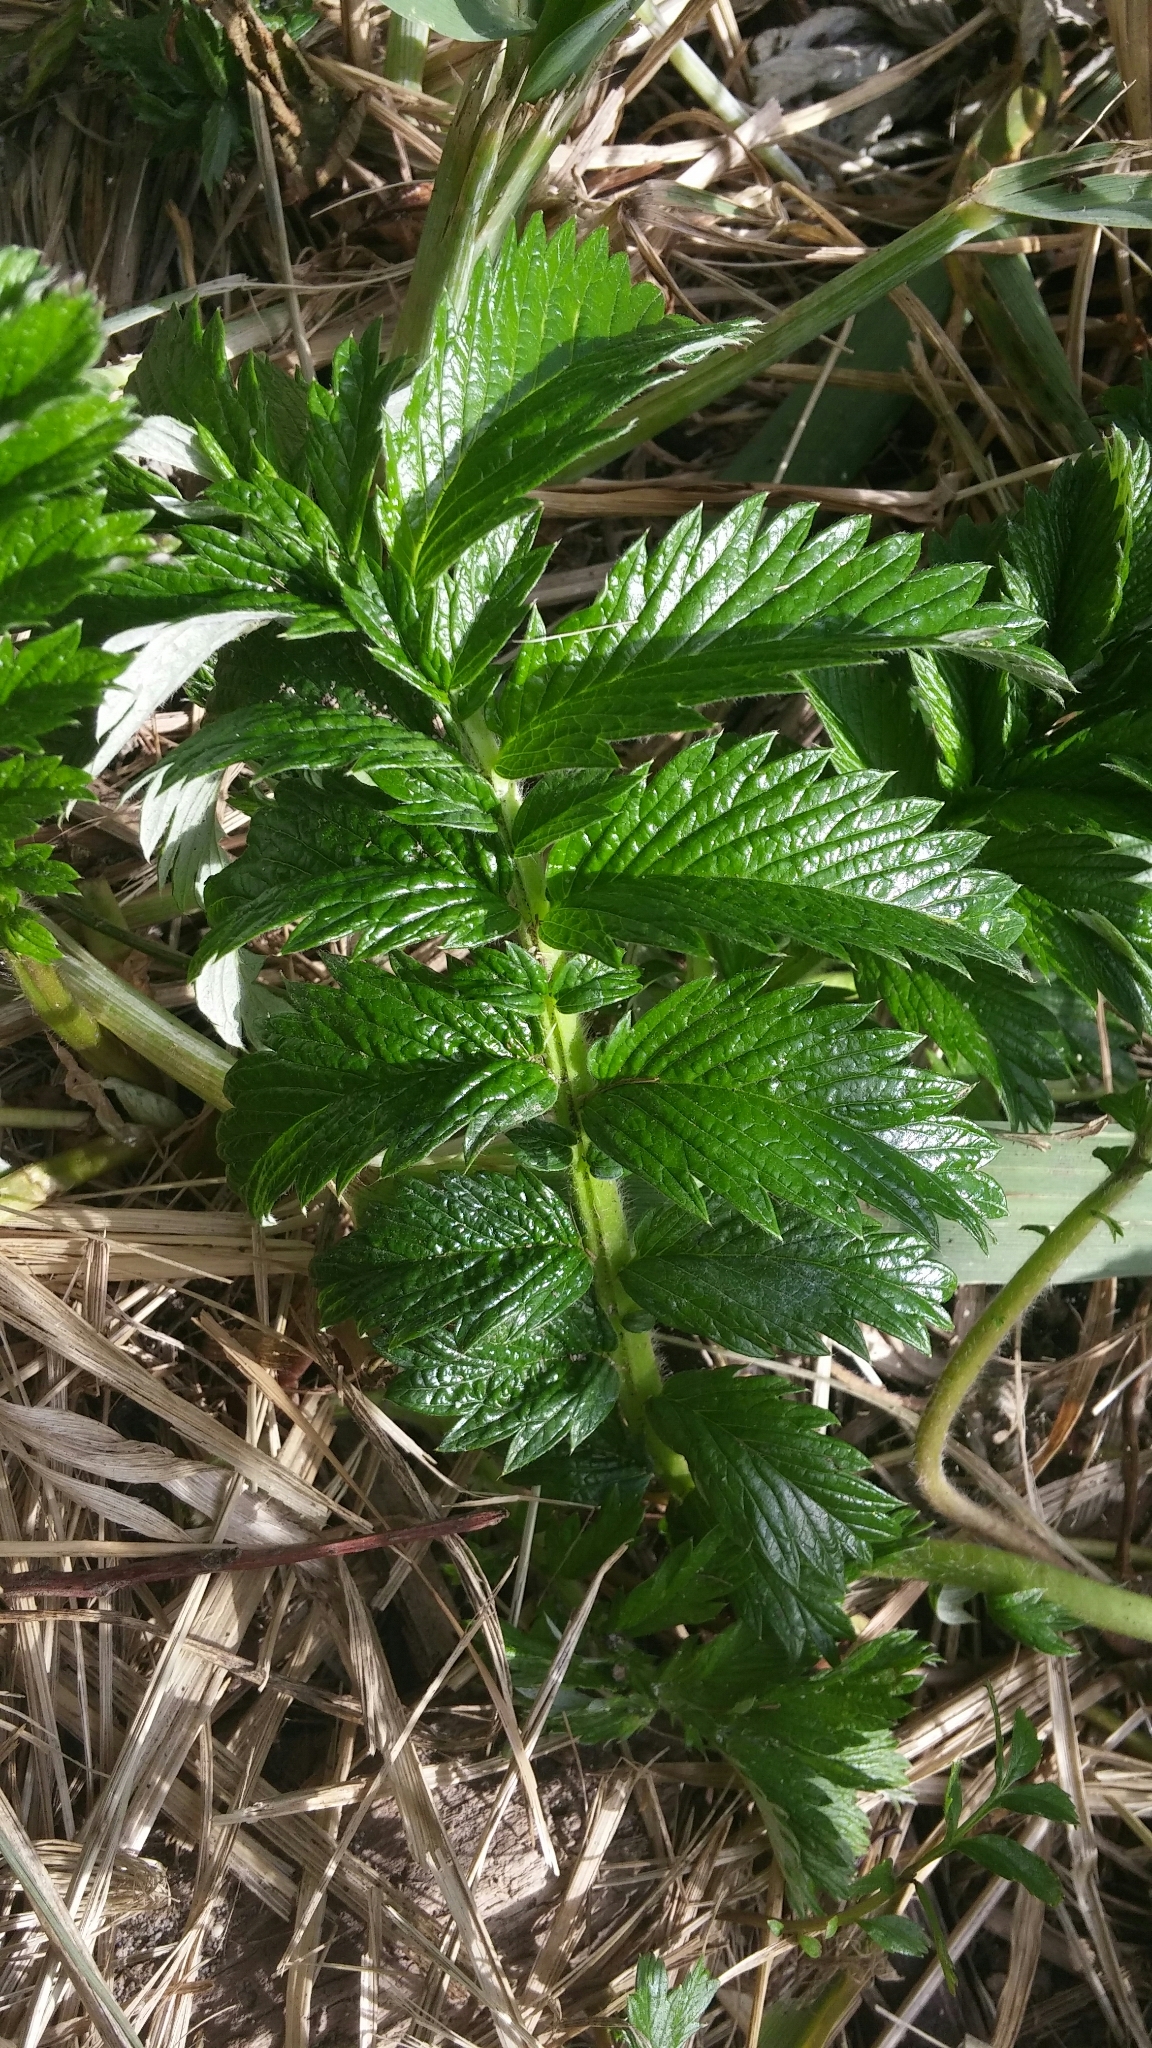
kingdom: Plantae
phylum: Tracheophyta
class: Magnoliopsida
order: Rosales
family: Rosaceae
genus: Argentina
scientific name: Argentina anserina
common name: Common silverweed
